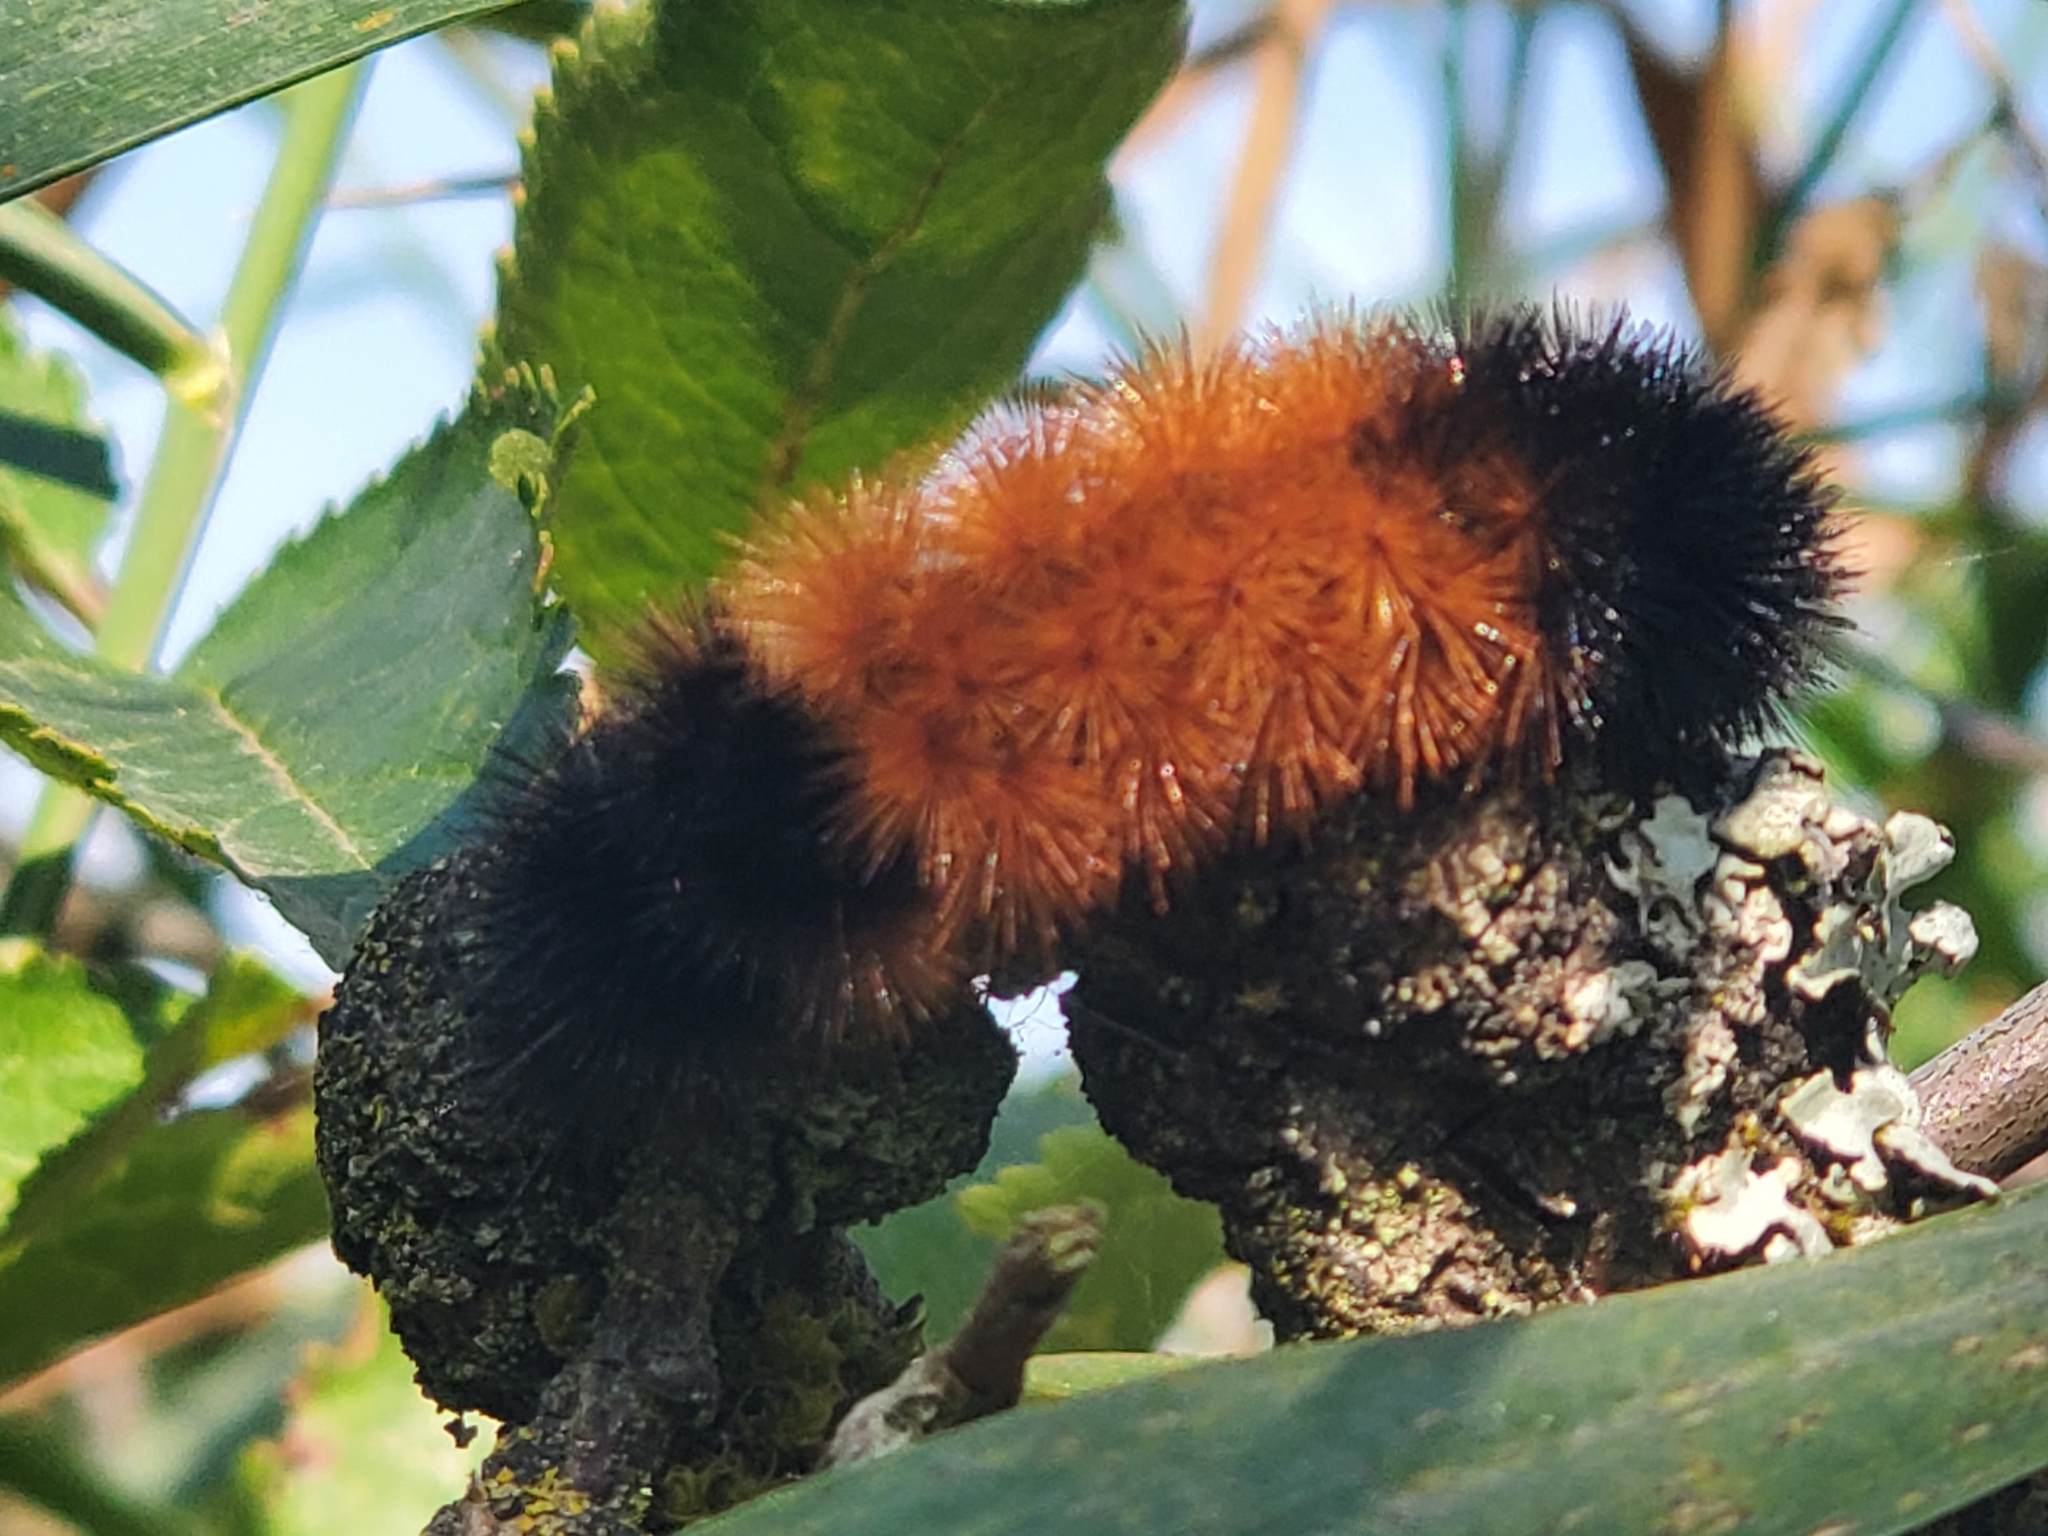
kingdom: Animalia
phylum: Arthropoda
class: Insecta
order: Lepidoptera
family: Erebidae
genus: Pyrrharctia
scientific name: Pyrrharctia isabella
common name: Isabella tiger moth
